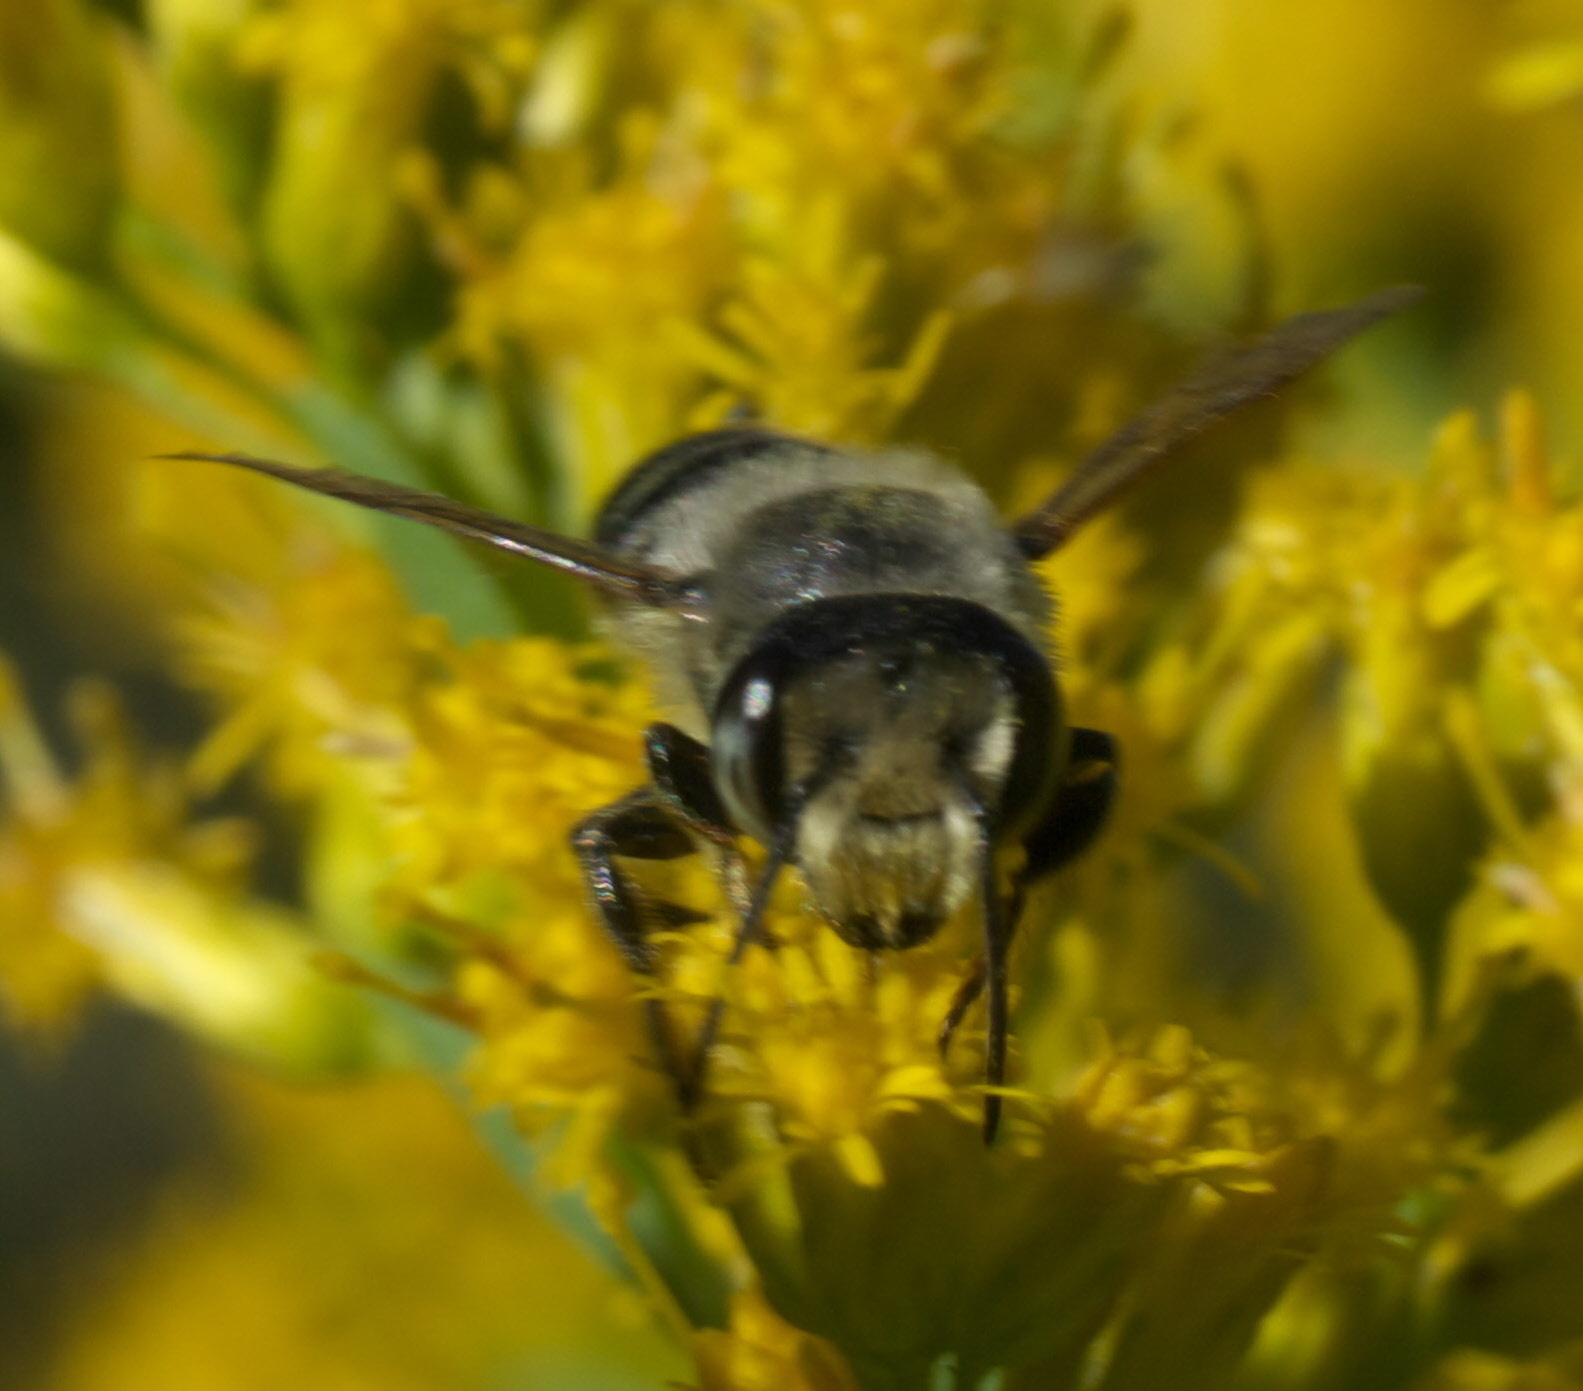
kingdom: Animalia
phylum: Arthropoda
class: Insecta
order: Hymenoptera
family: Megachilidae
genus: Megachile
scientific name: Megachile mendica
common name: Flat-tailed leafcutter
